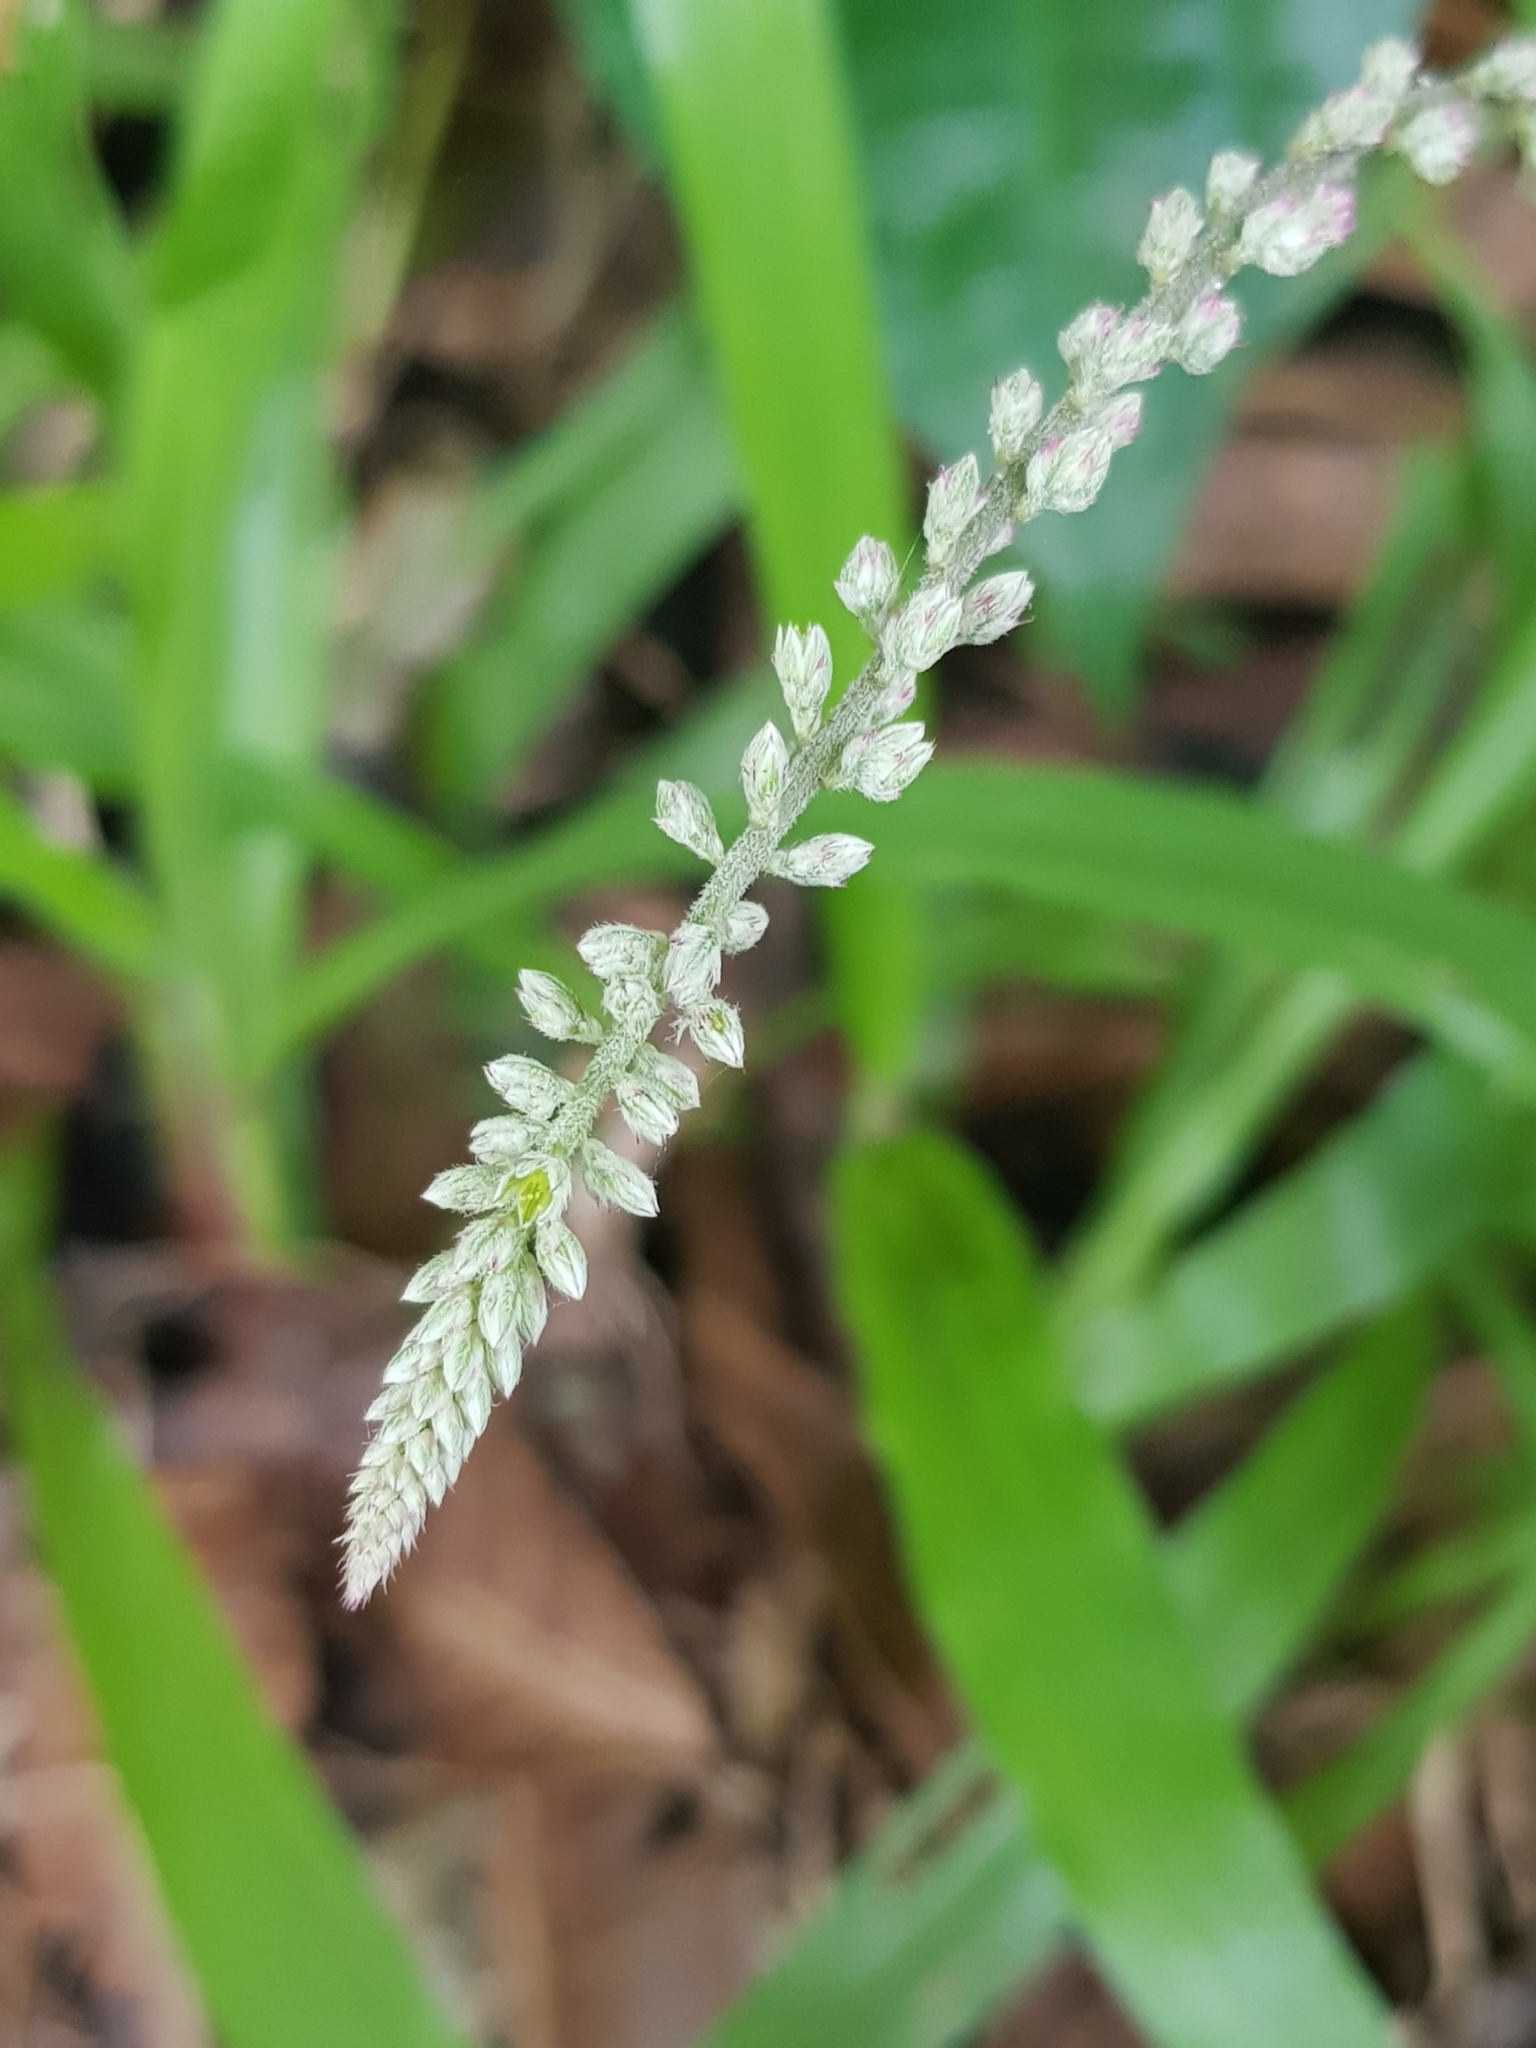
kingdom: Plantae
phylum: Tracheophyta
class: Magnoliopsida
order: Caryophyllales
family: Amaranthaceae
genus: Cyathula
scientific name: Cyathula prostrata
